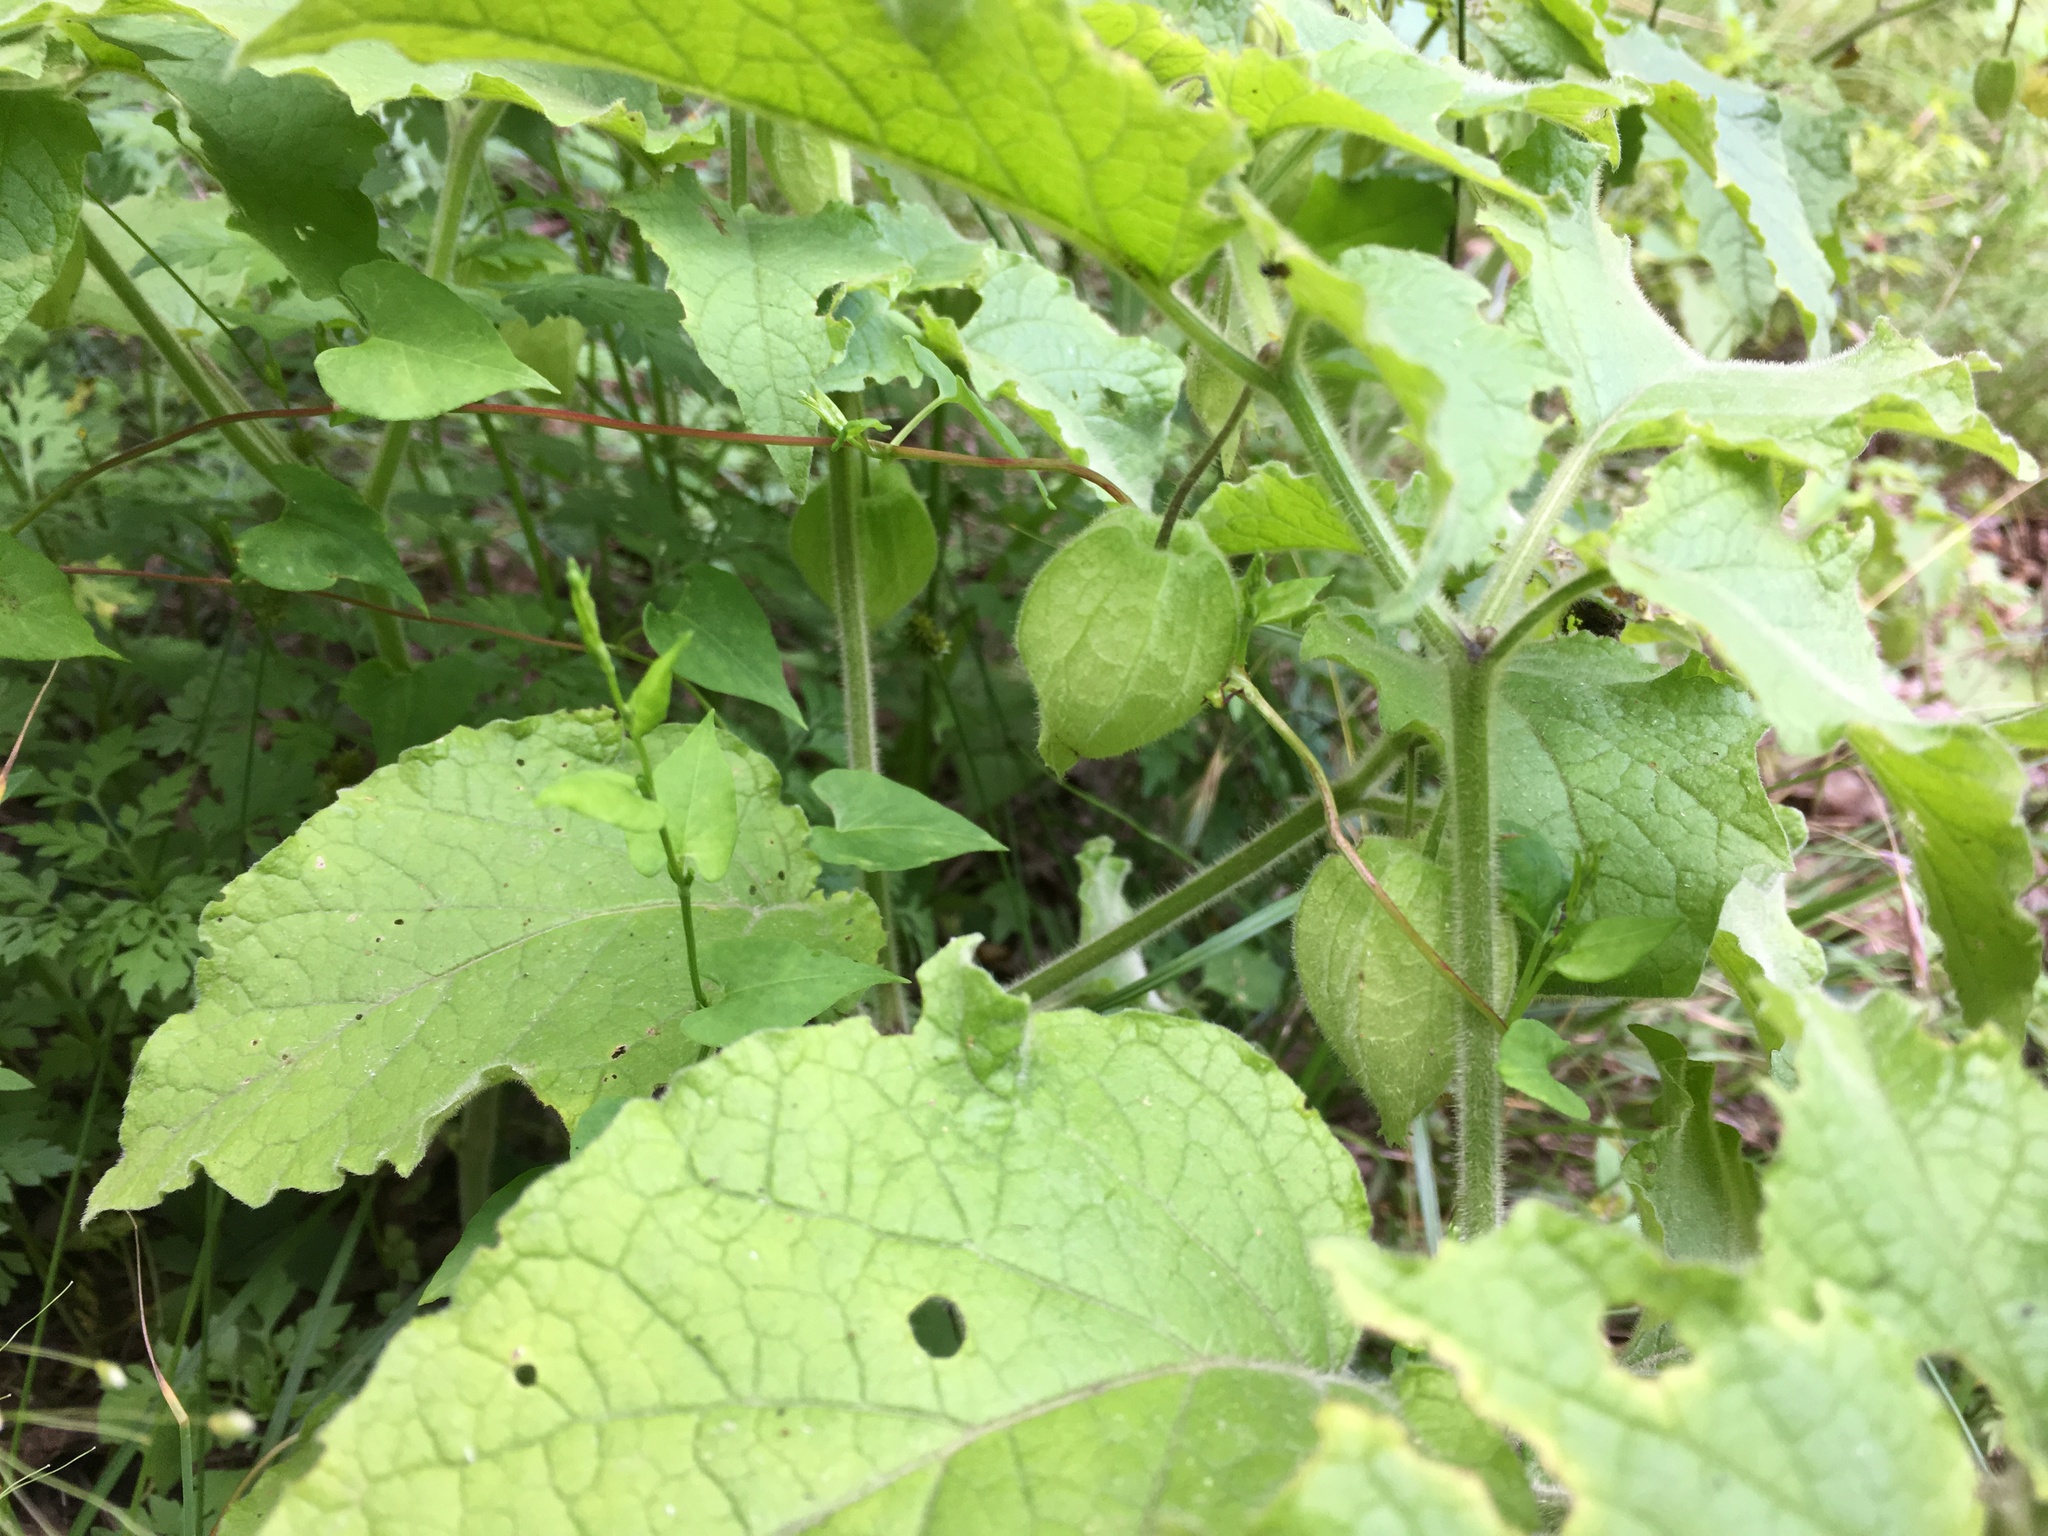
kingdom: Plantae
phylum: Tracheophyta
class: Magnoliopsida
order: Solanales
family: Solanaceae
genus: Physalis
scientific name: Physalis heterophylla
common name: Clammy ground-cherry
